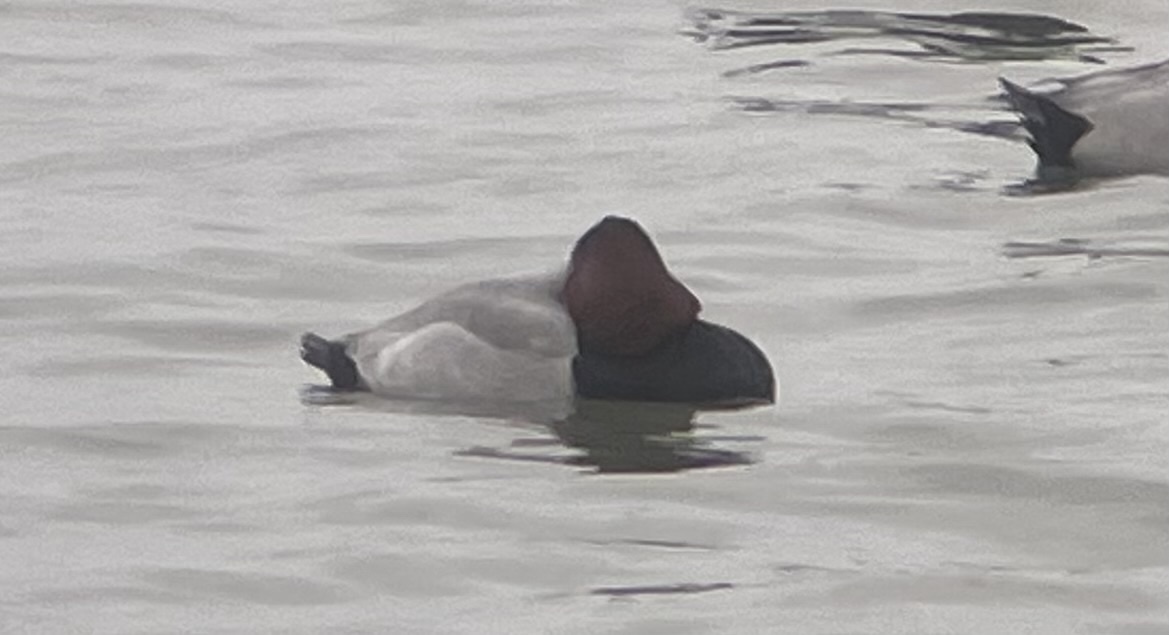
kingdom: Animalia
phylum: Chordata
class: Aves
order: Anseriformes
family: Anatidae
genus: Aythya
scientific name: Aythya ferina
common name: Common pochard
